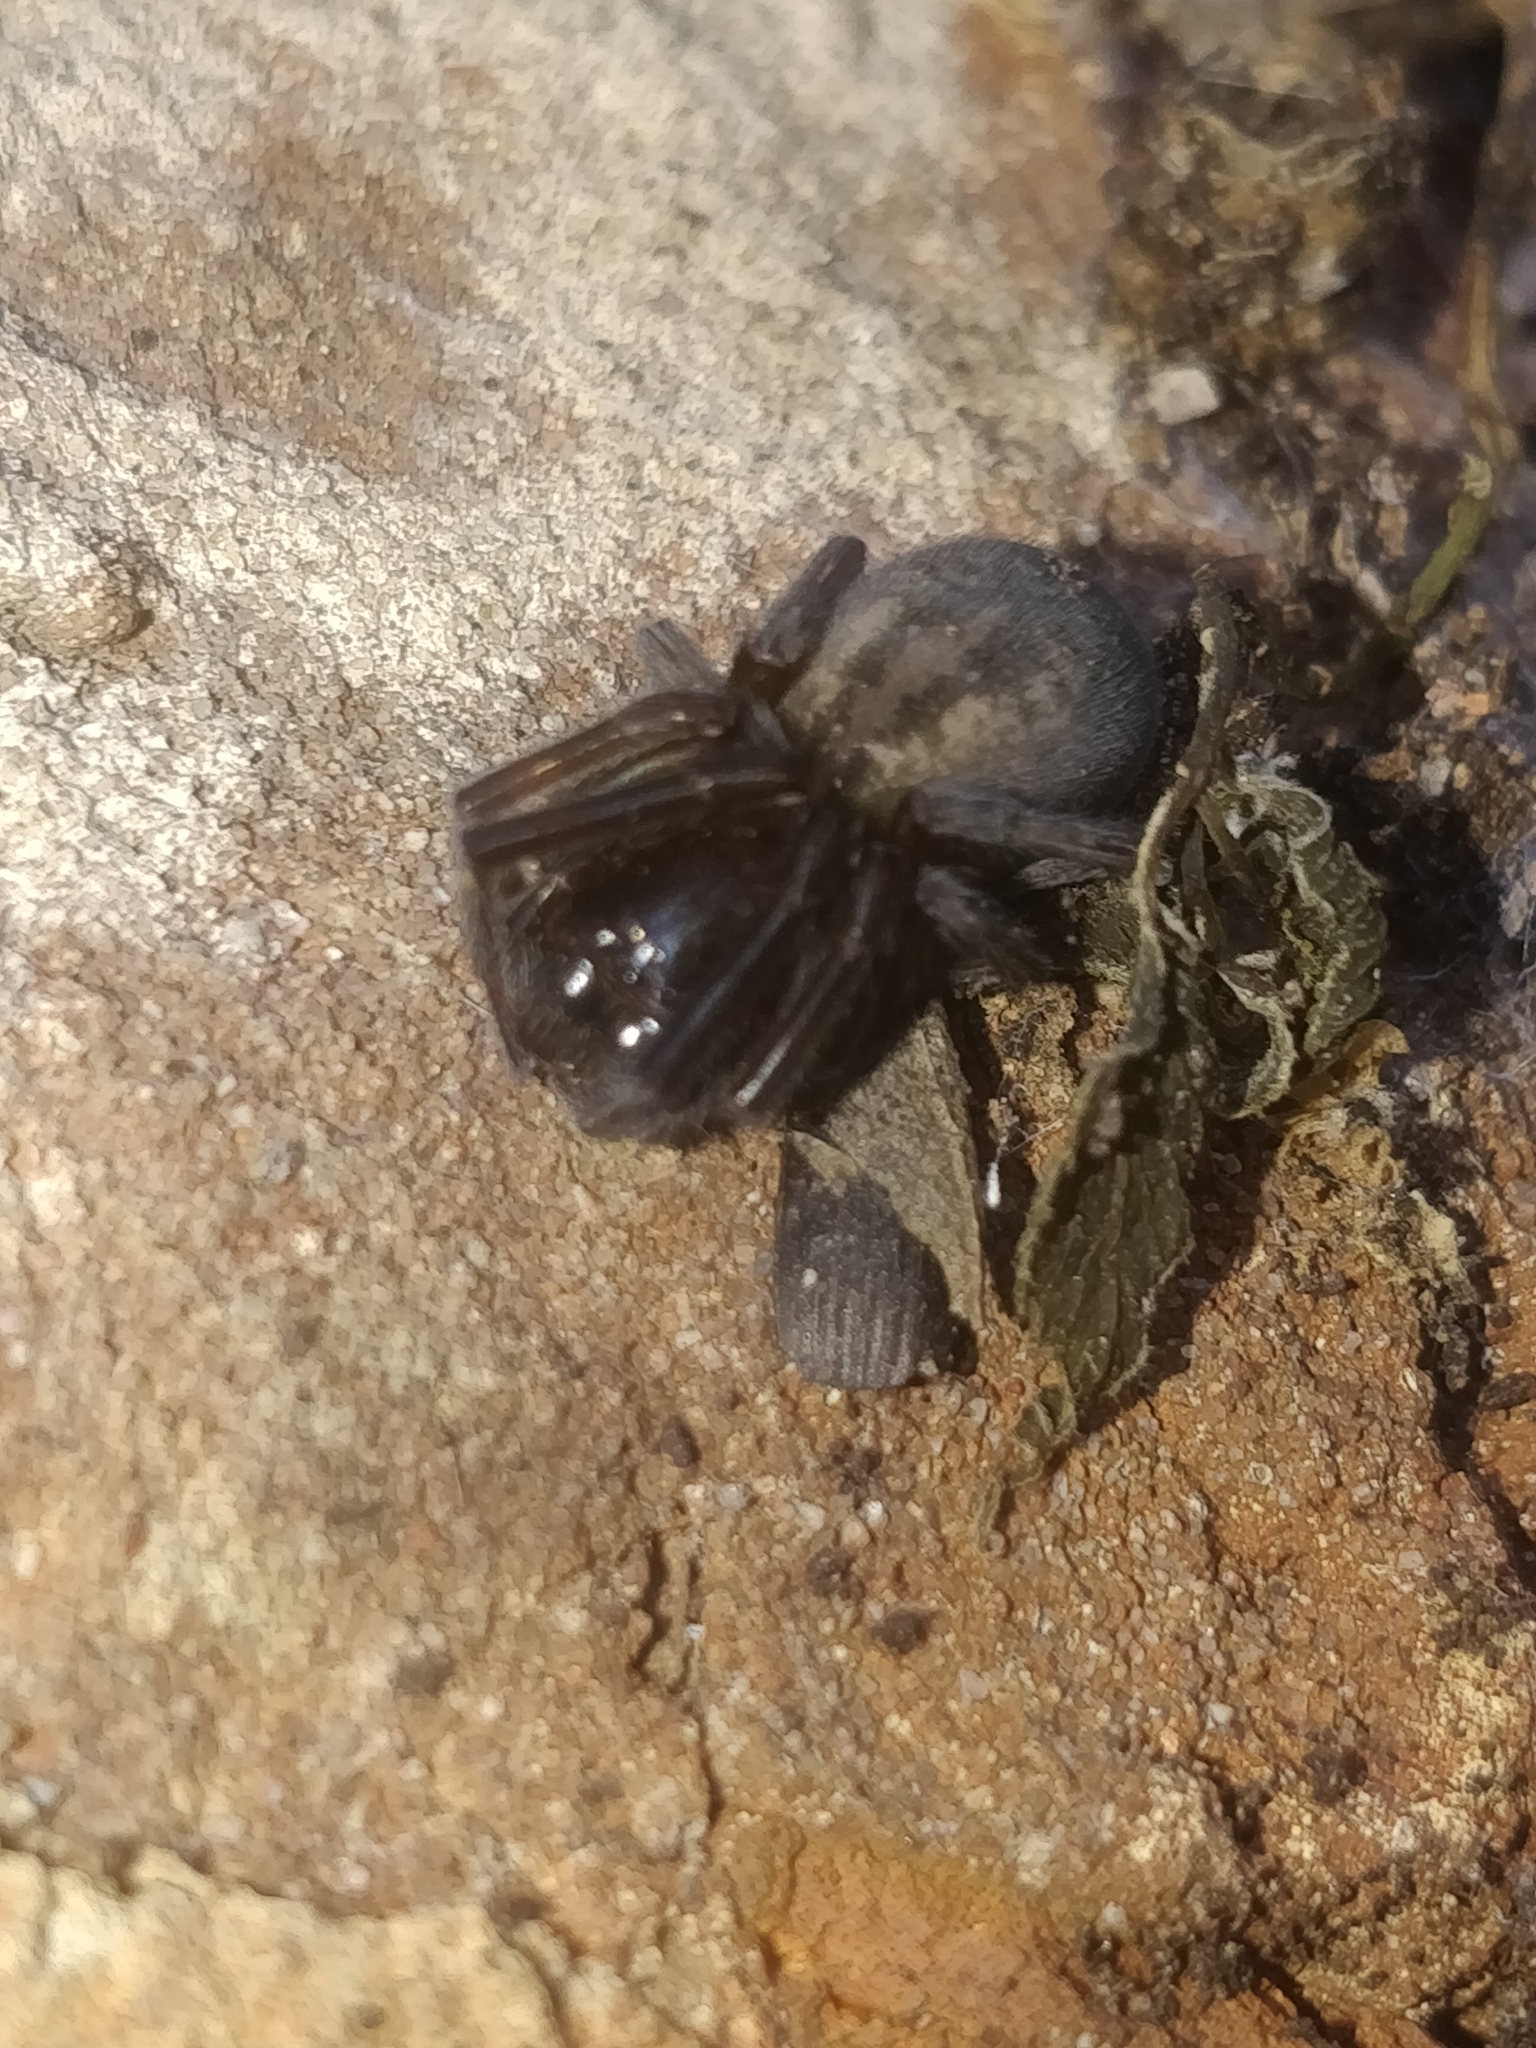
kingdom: Animalia
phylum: Arthropoda
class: Arachnida
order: Araneae
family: Amaurobiidae
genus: Amaurobius
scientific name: Amaurobius ferox
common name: Black laceweaver
